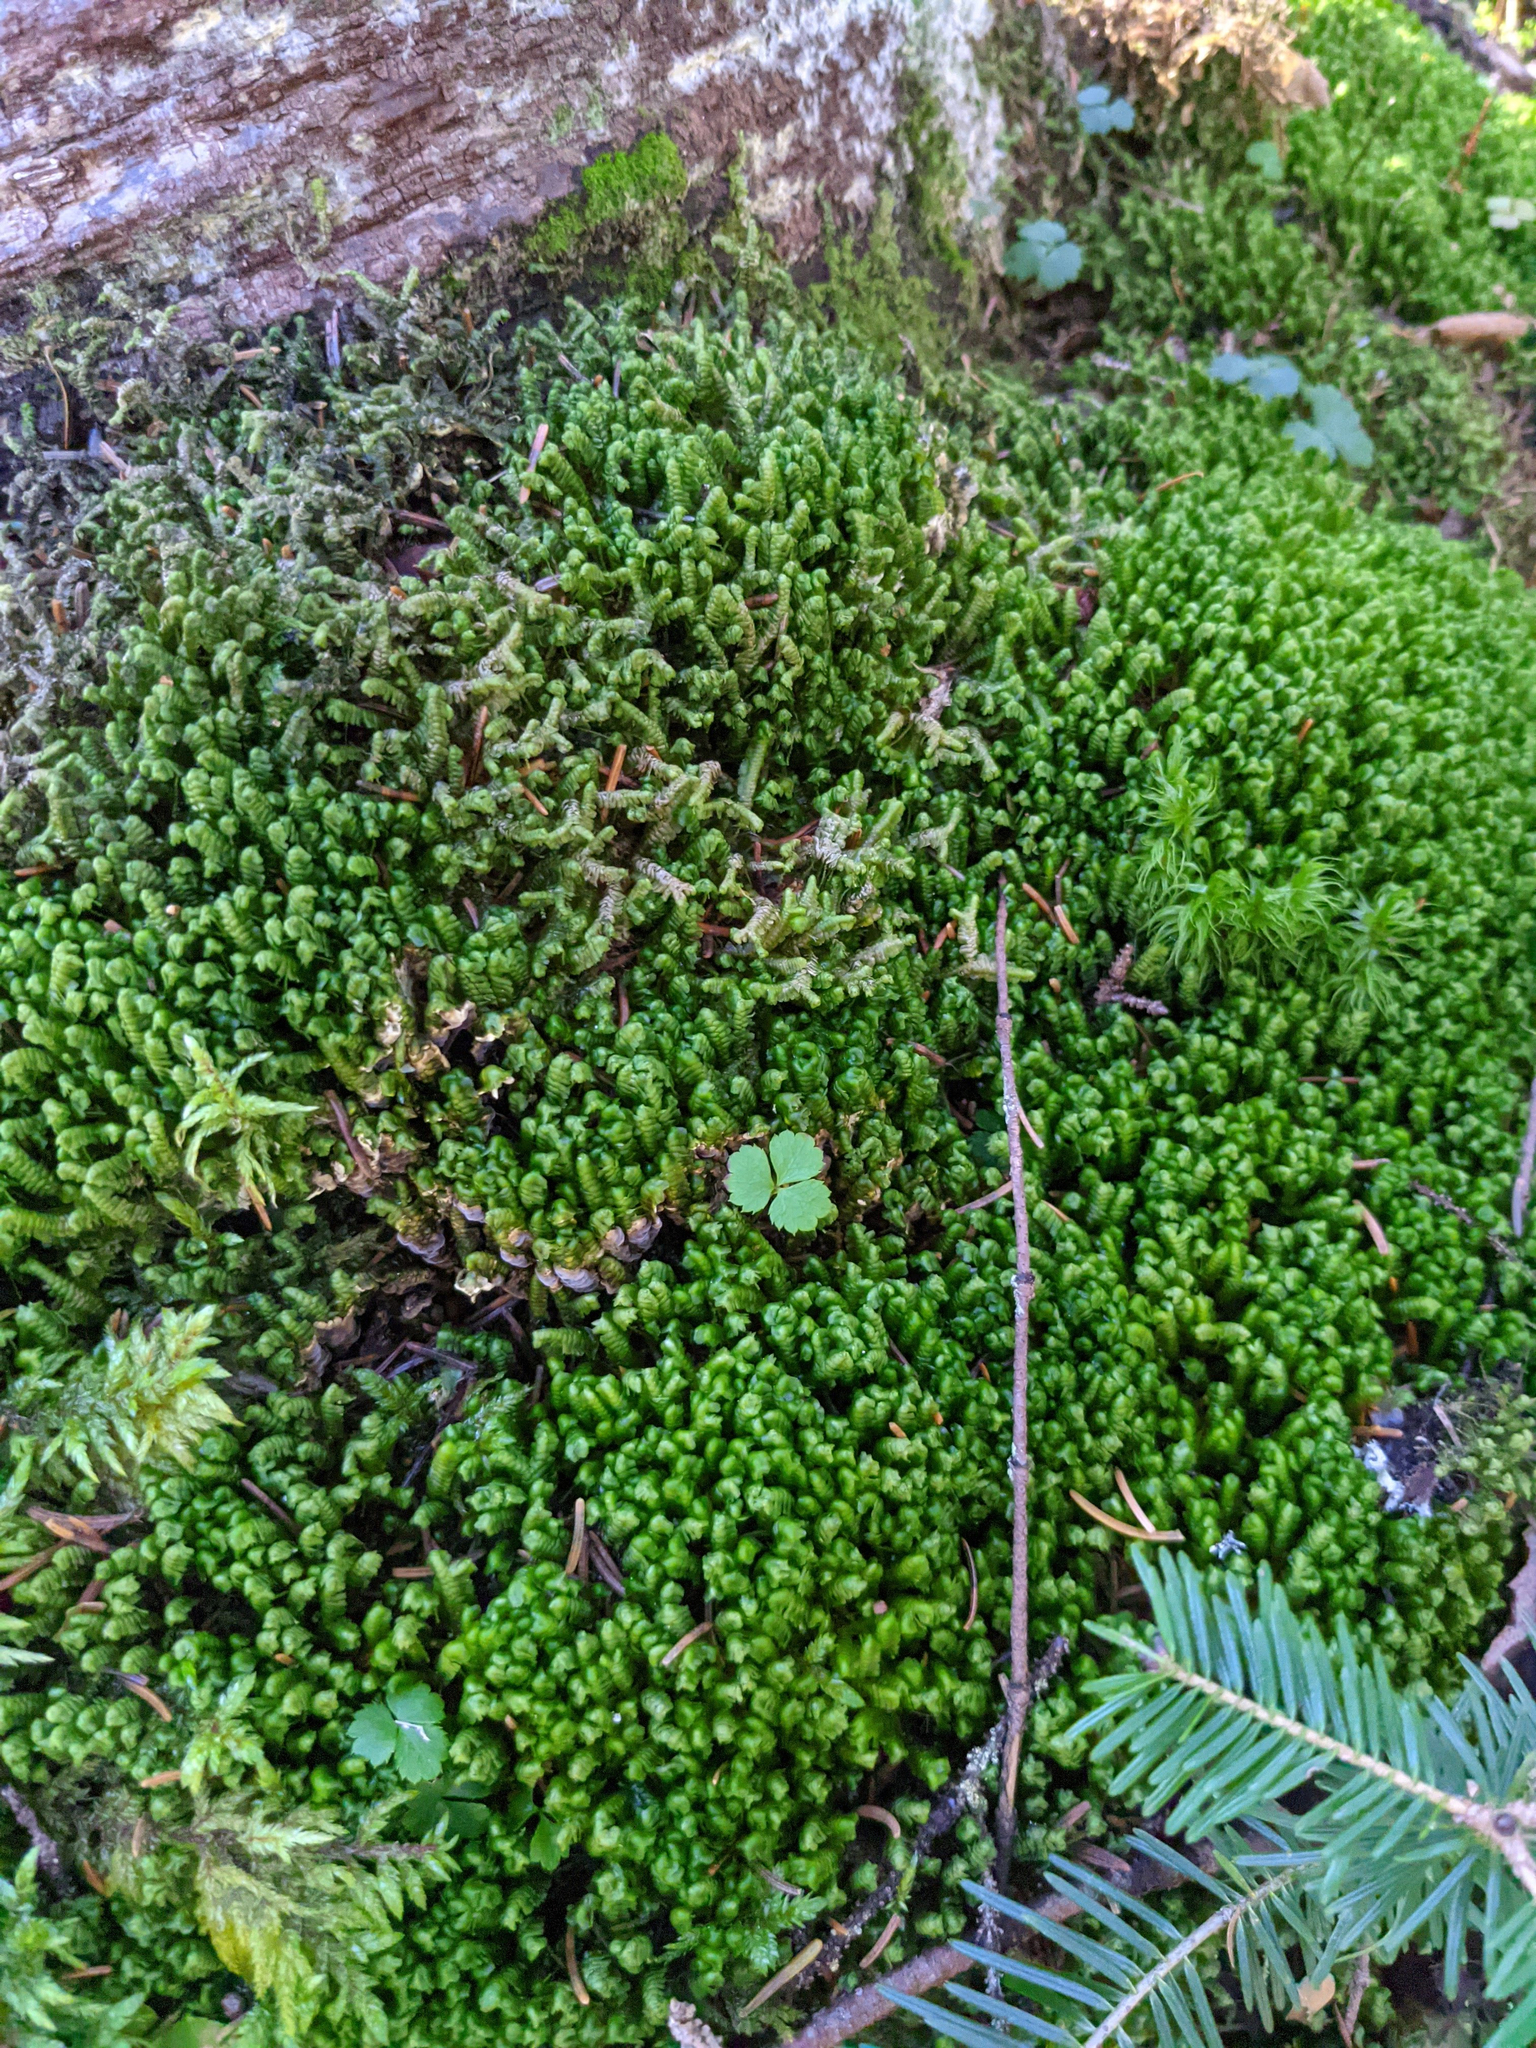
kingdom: Plantae
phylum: Marchantiophyta
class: Jungermanniopsida
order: Jungermanniales
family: Lepidoziaceae
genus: Bazzania
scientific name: Bazzania trilobata
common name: Three-lobed whipwort
